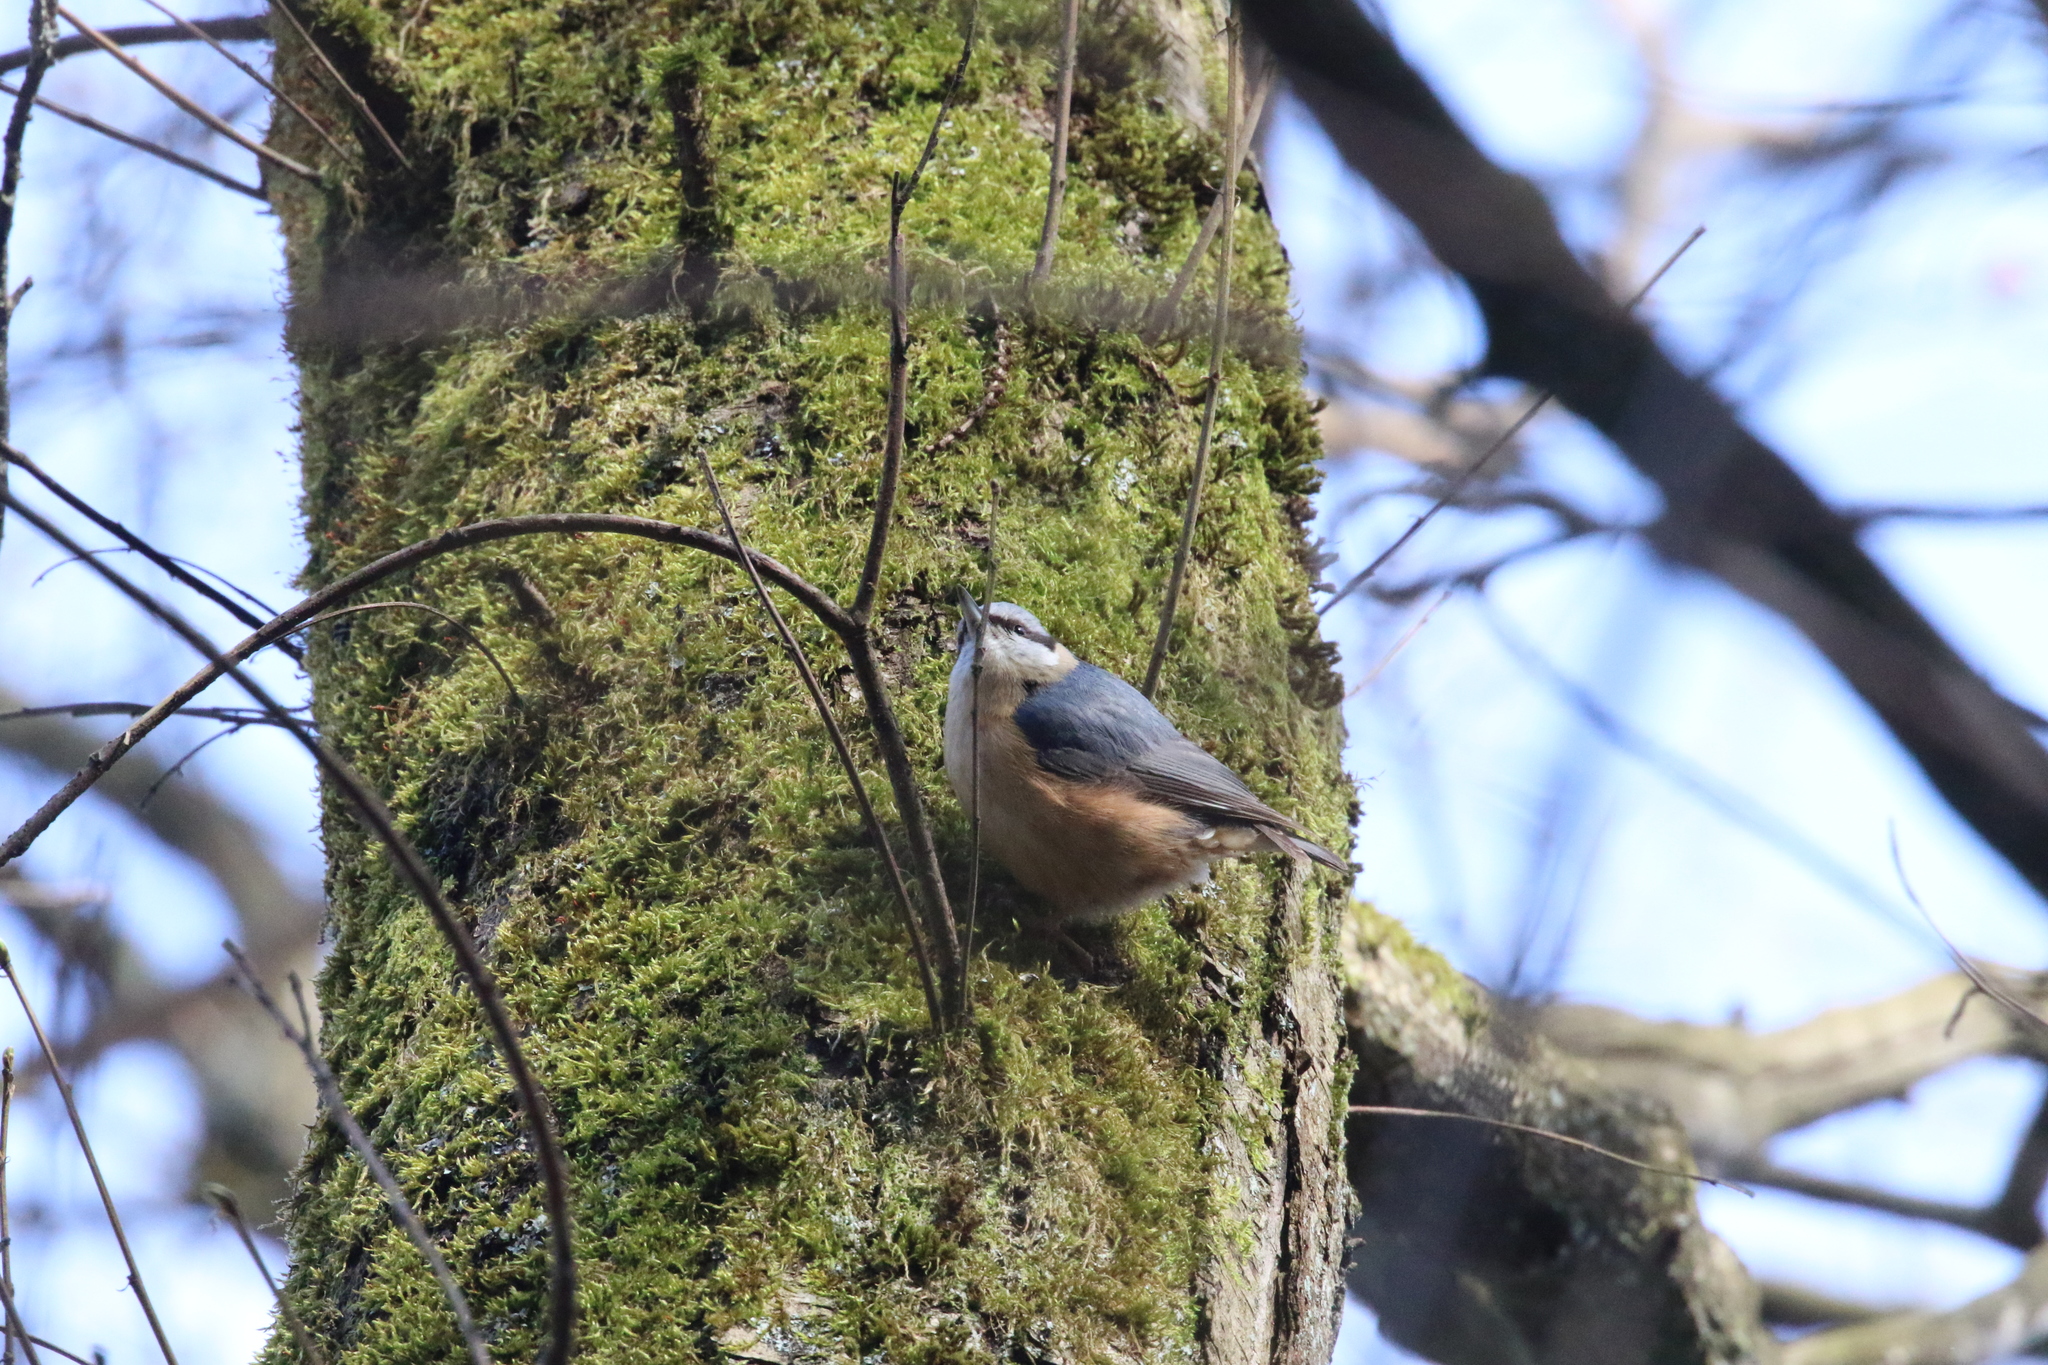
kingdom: Animalia
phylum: Chordata
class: Aves
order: Passeriformes
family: Sittidae
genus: Sitta
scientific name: Sitta europaea
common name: Eurasian nuthatch
